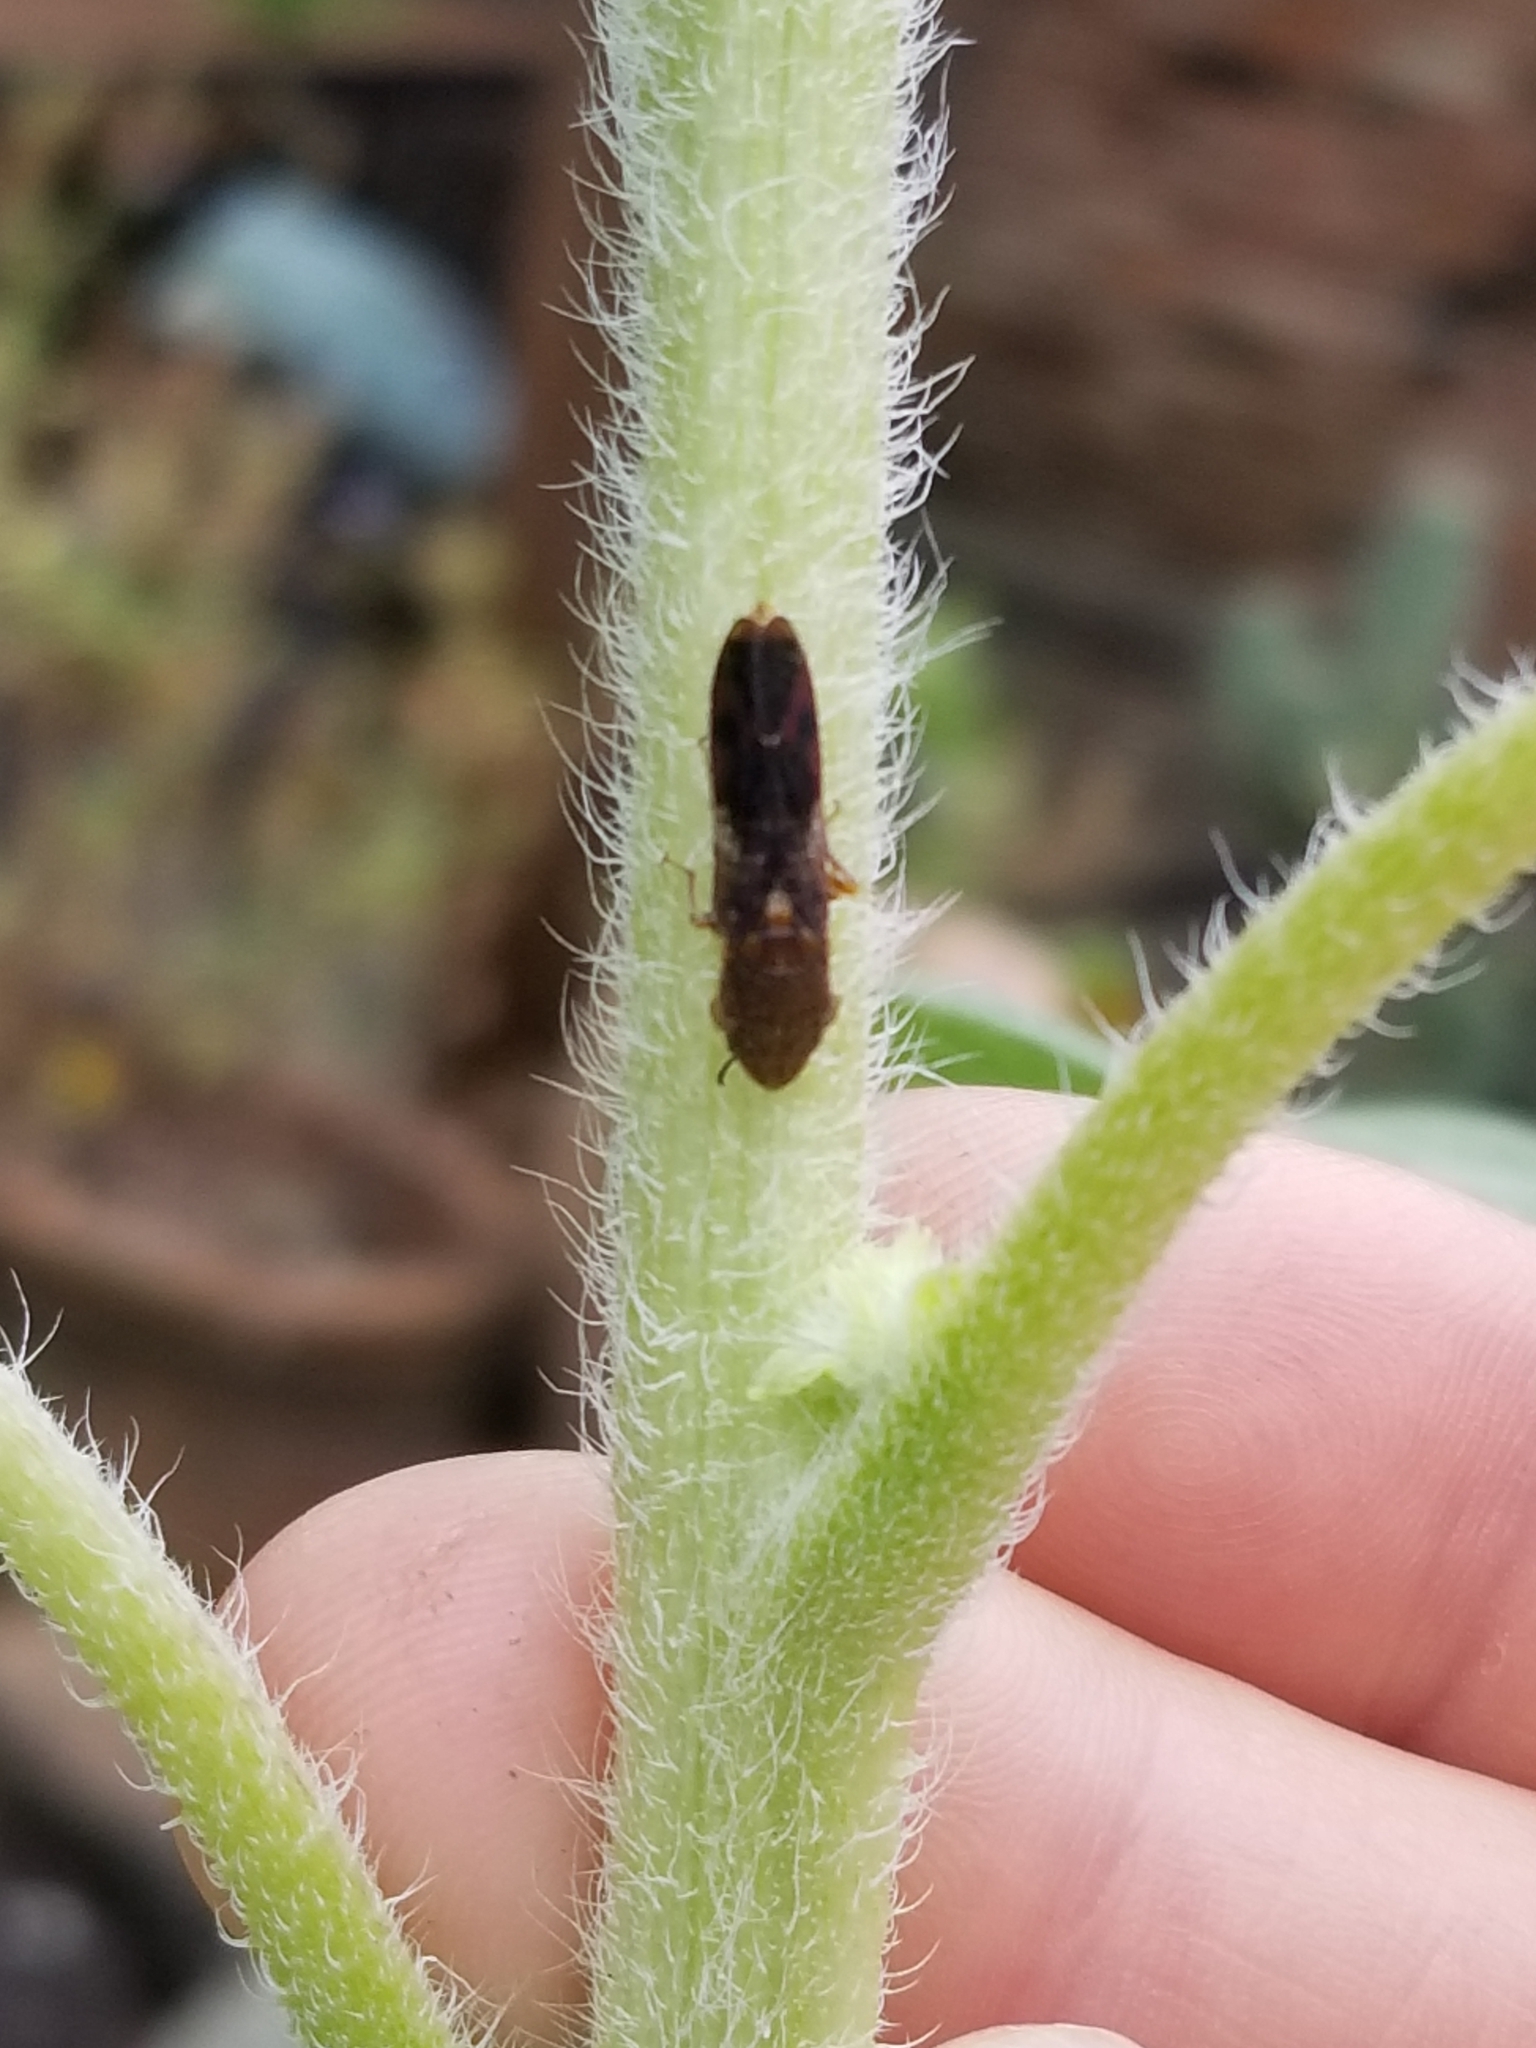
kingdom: Animalia
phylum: Arthropoda
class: Insecta
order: Hemiptera
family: Cicadellidae
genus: Homalodisca
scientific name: Homalodisca vitripennis
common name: Glassy-winged sharpshooter
